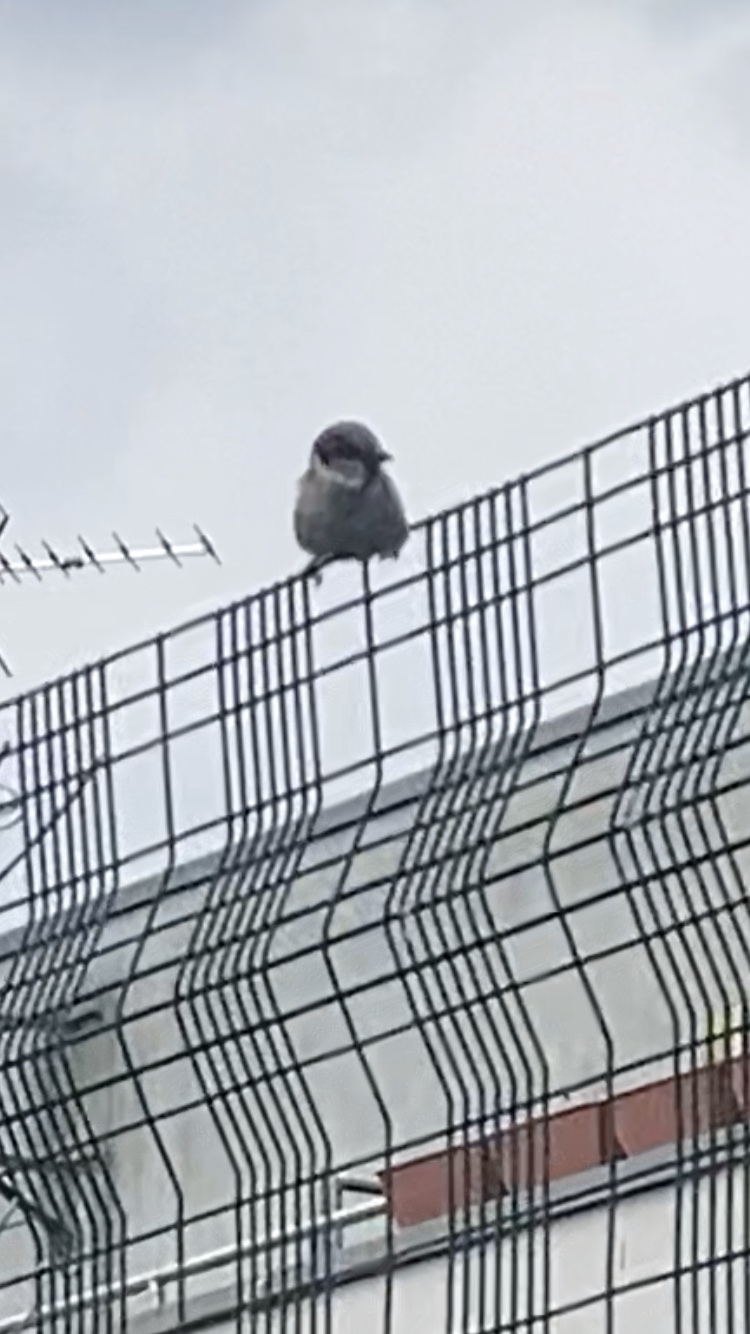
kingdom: Animalia
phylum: Chordata
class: Aves
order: Passeriformes
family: Passeridae
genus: Passer
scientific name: Passer domesticus
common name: House sparrow
